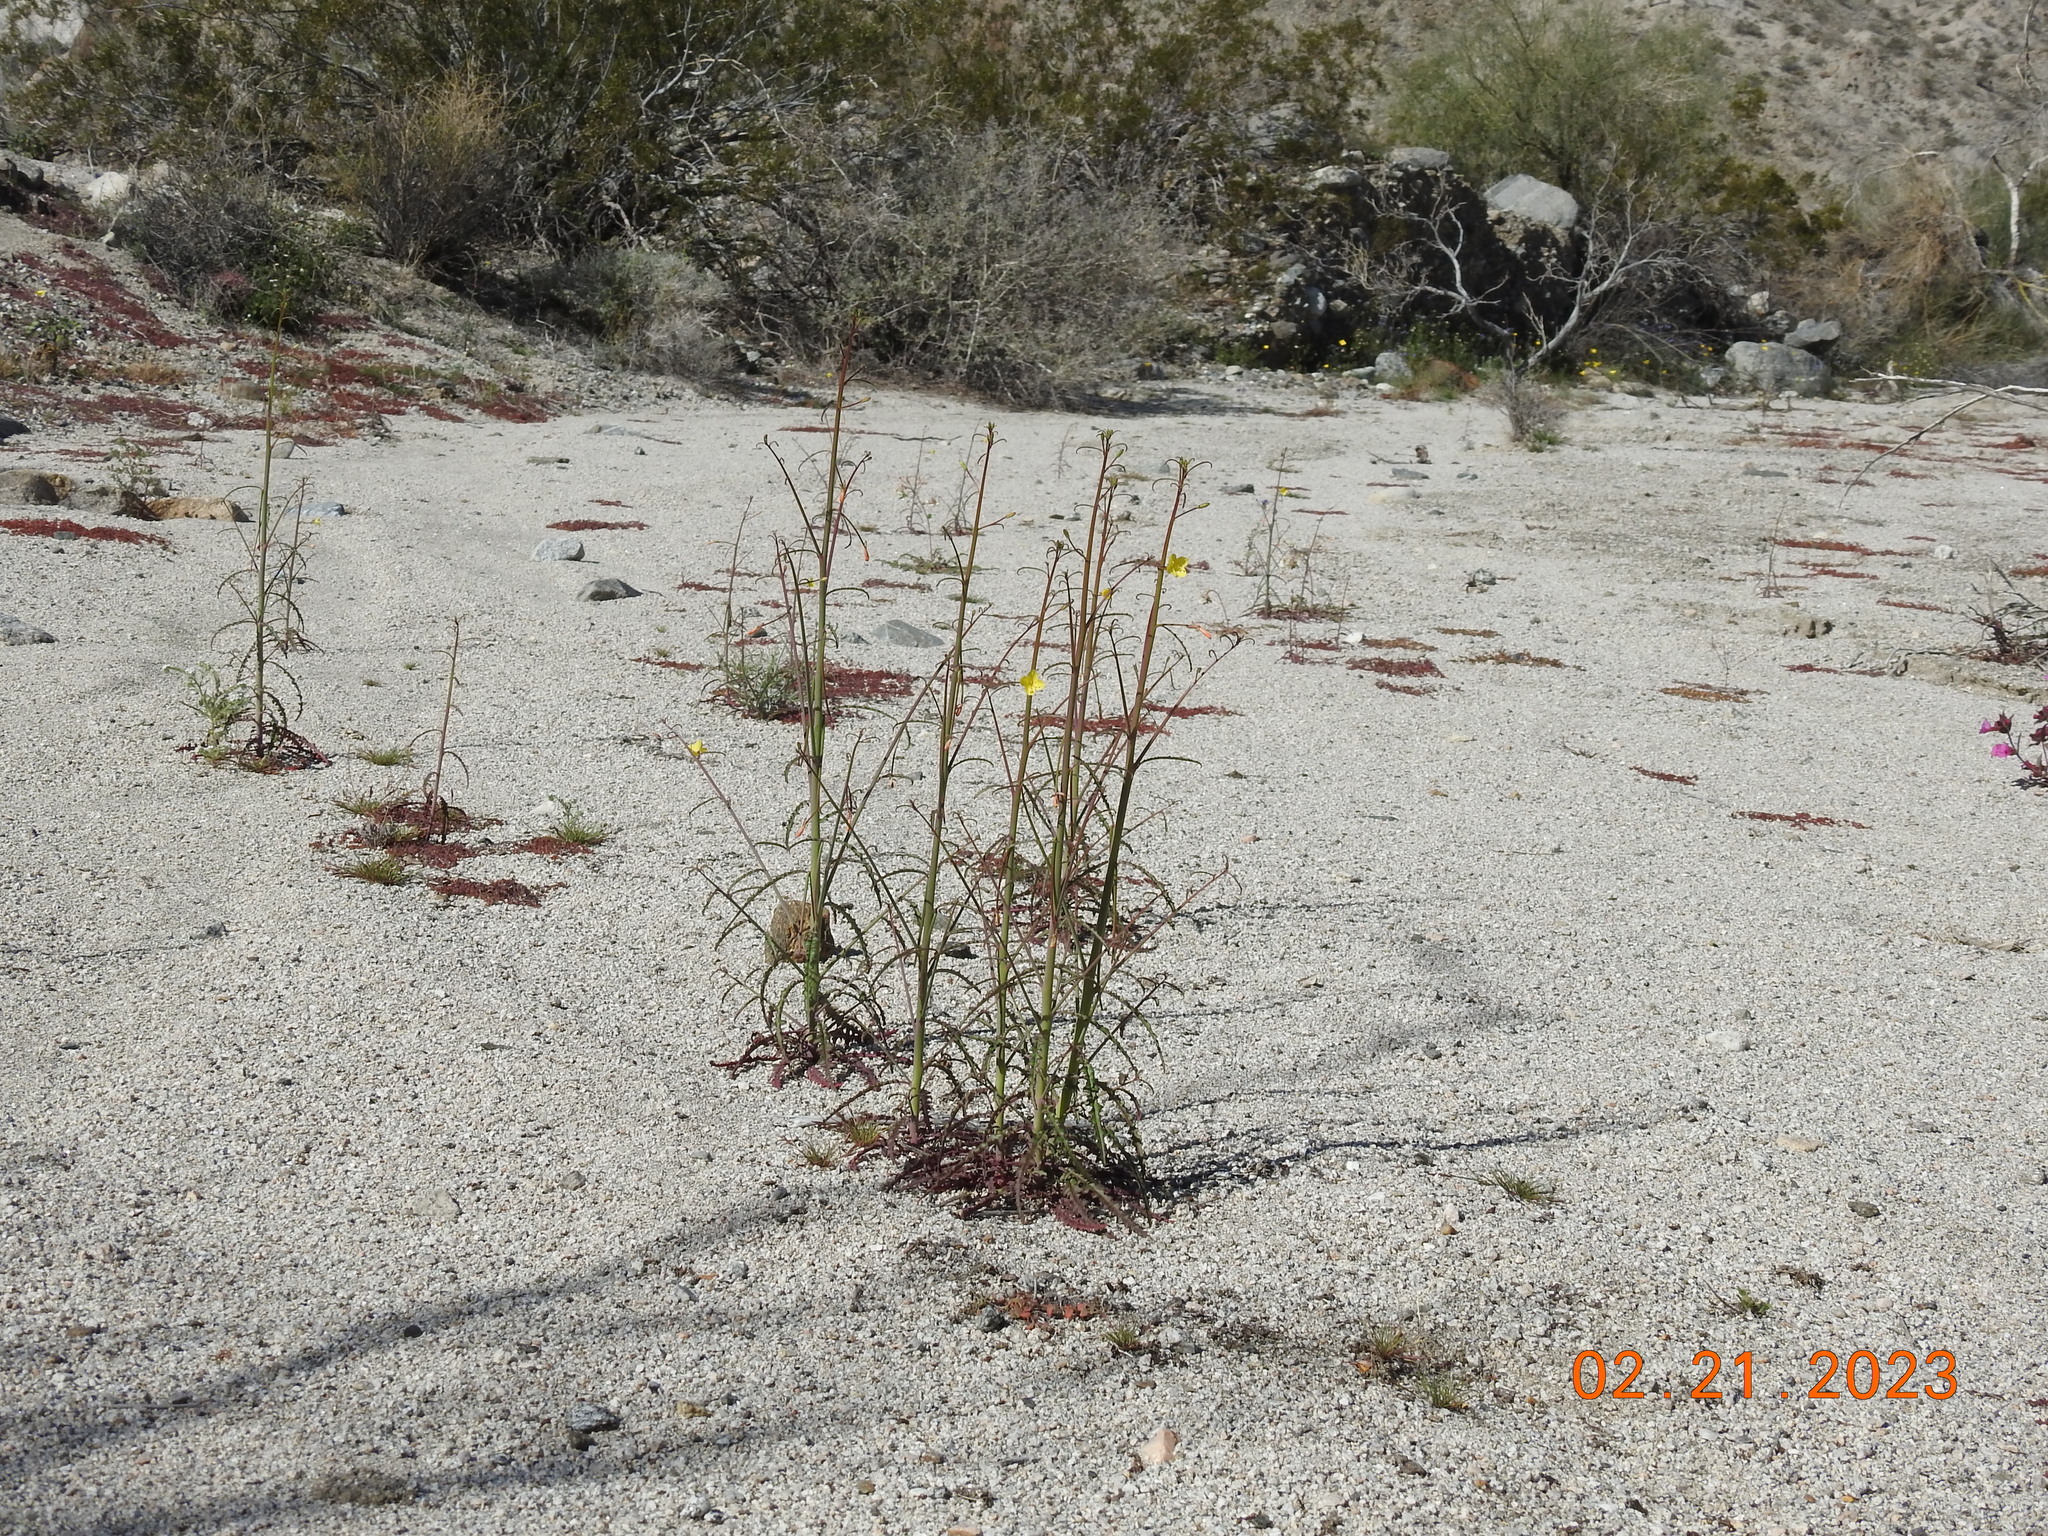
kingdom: Plantae
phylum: Tracheophyta
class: Magnoliopsida
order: Myrtales
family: Onagraceae
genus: Eulobus
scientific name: Eulobus californicus
